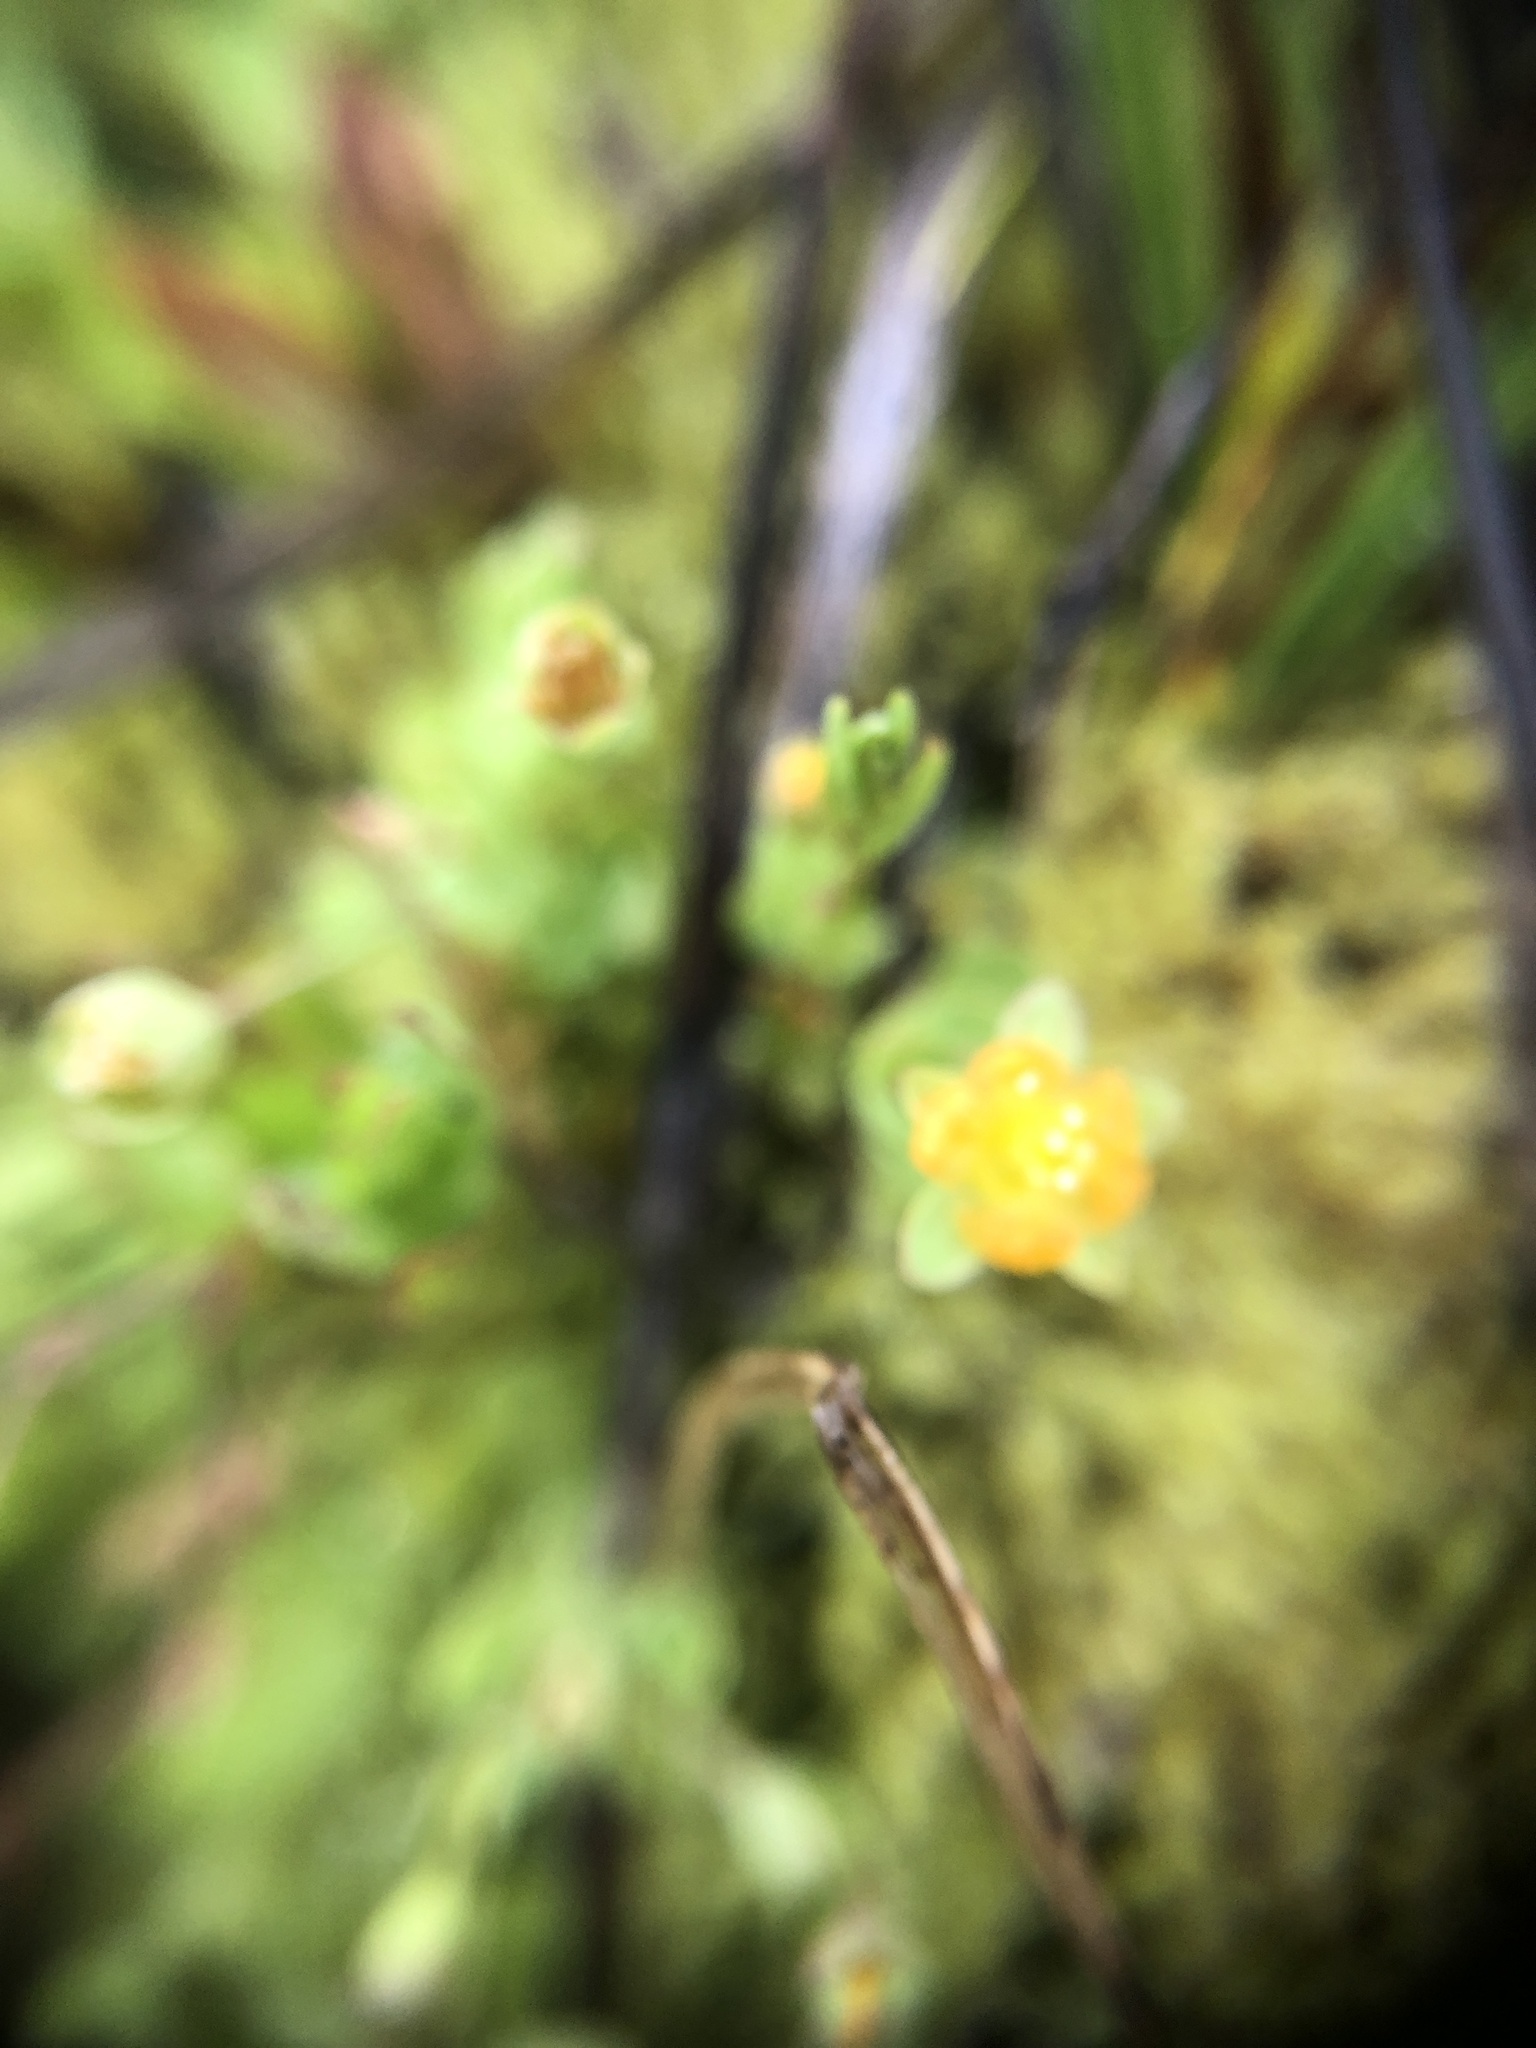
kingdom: Plantae
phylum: Tracheophyta
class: Magnoliopsida
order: Malpighiales
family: Hypericaceae
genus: Hypericum
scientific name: Hypericum anagalloides
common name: Bog st. john's-wort
